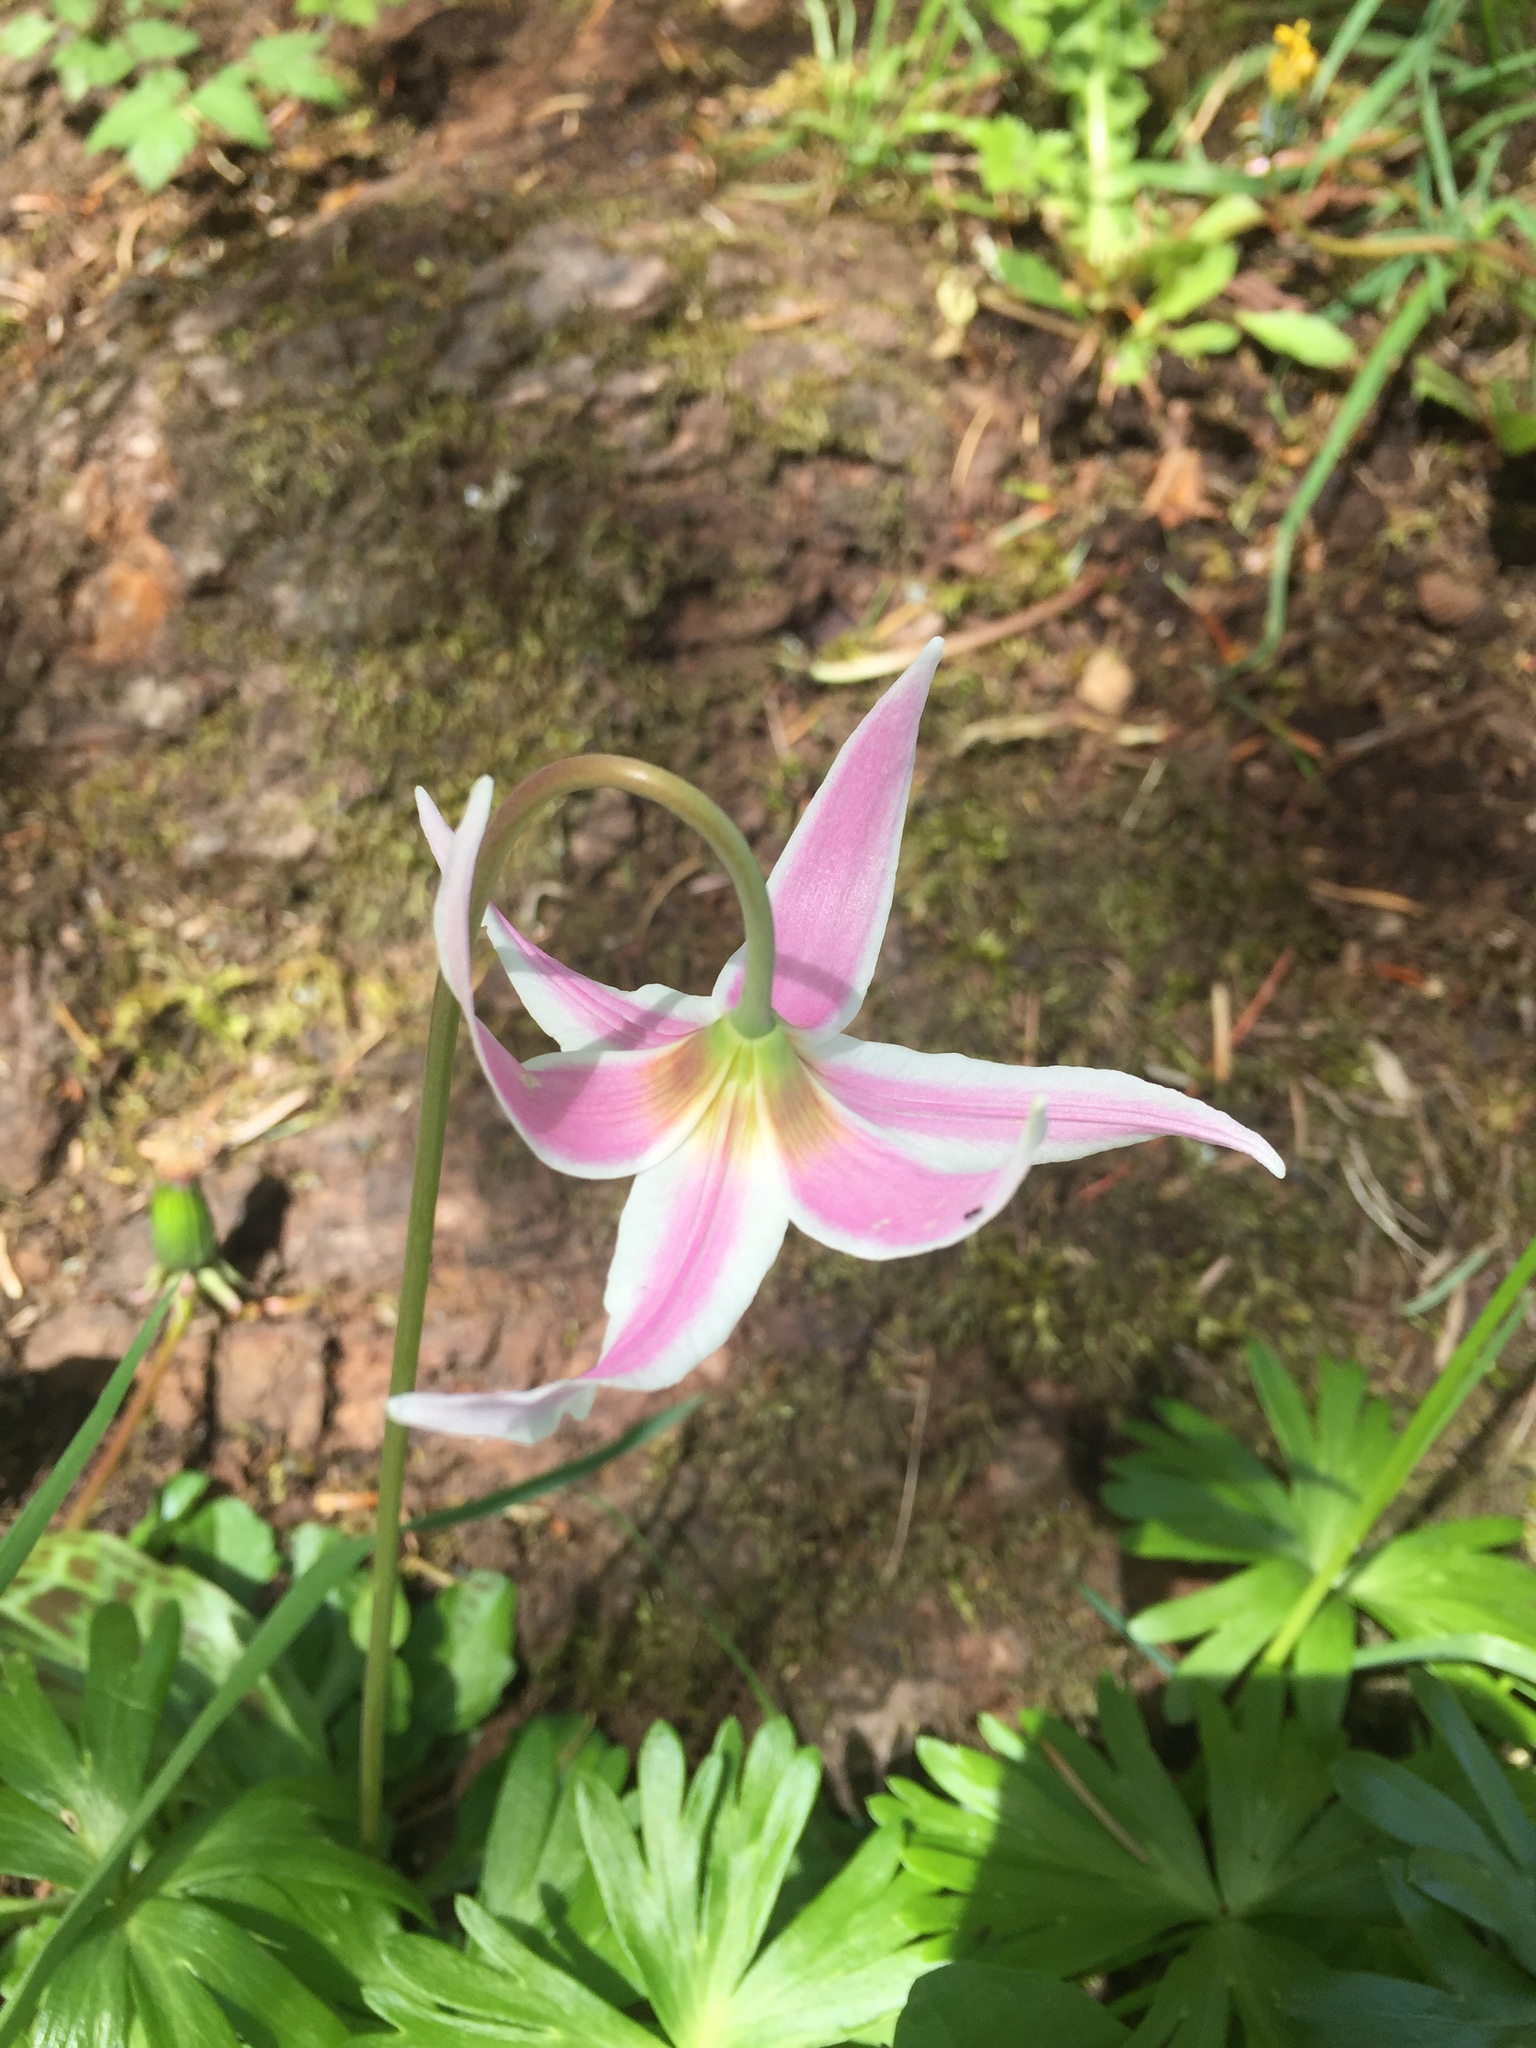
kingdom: Plantae
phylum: Tracheophyta
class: Liliopsida
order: Liliales
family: Liliaceae
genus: Erythronium
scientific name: Erythronium
